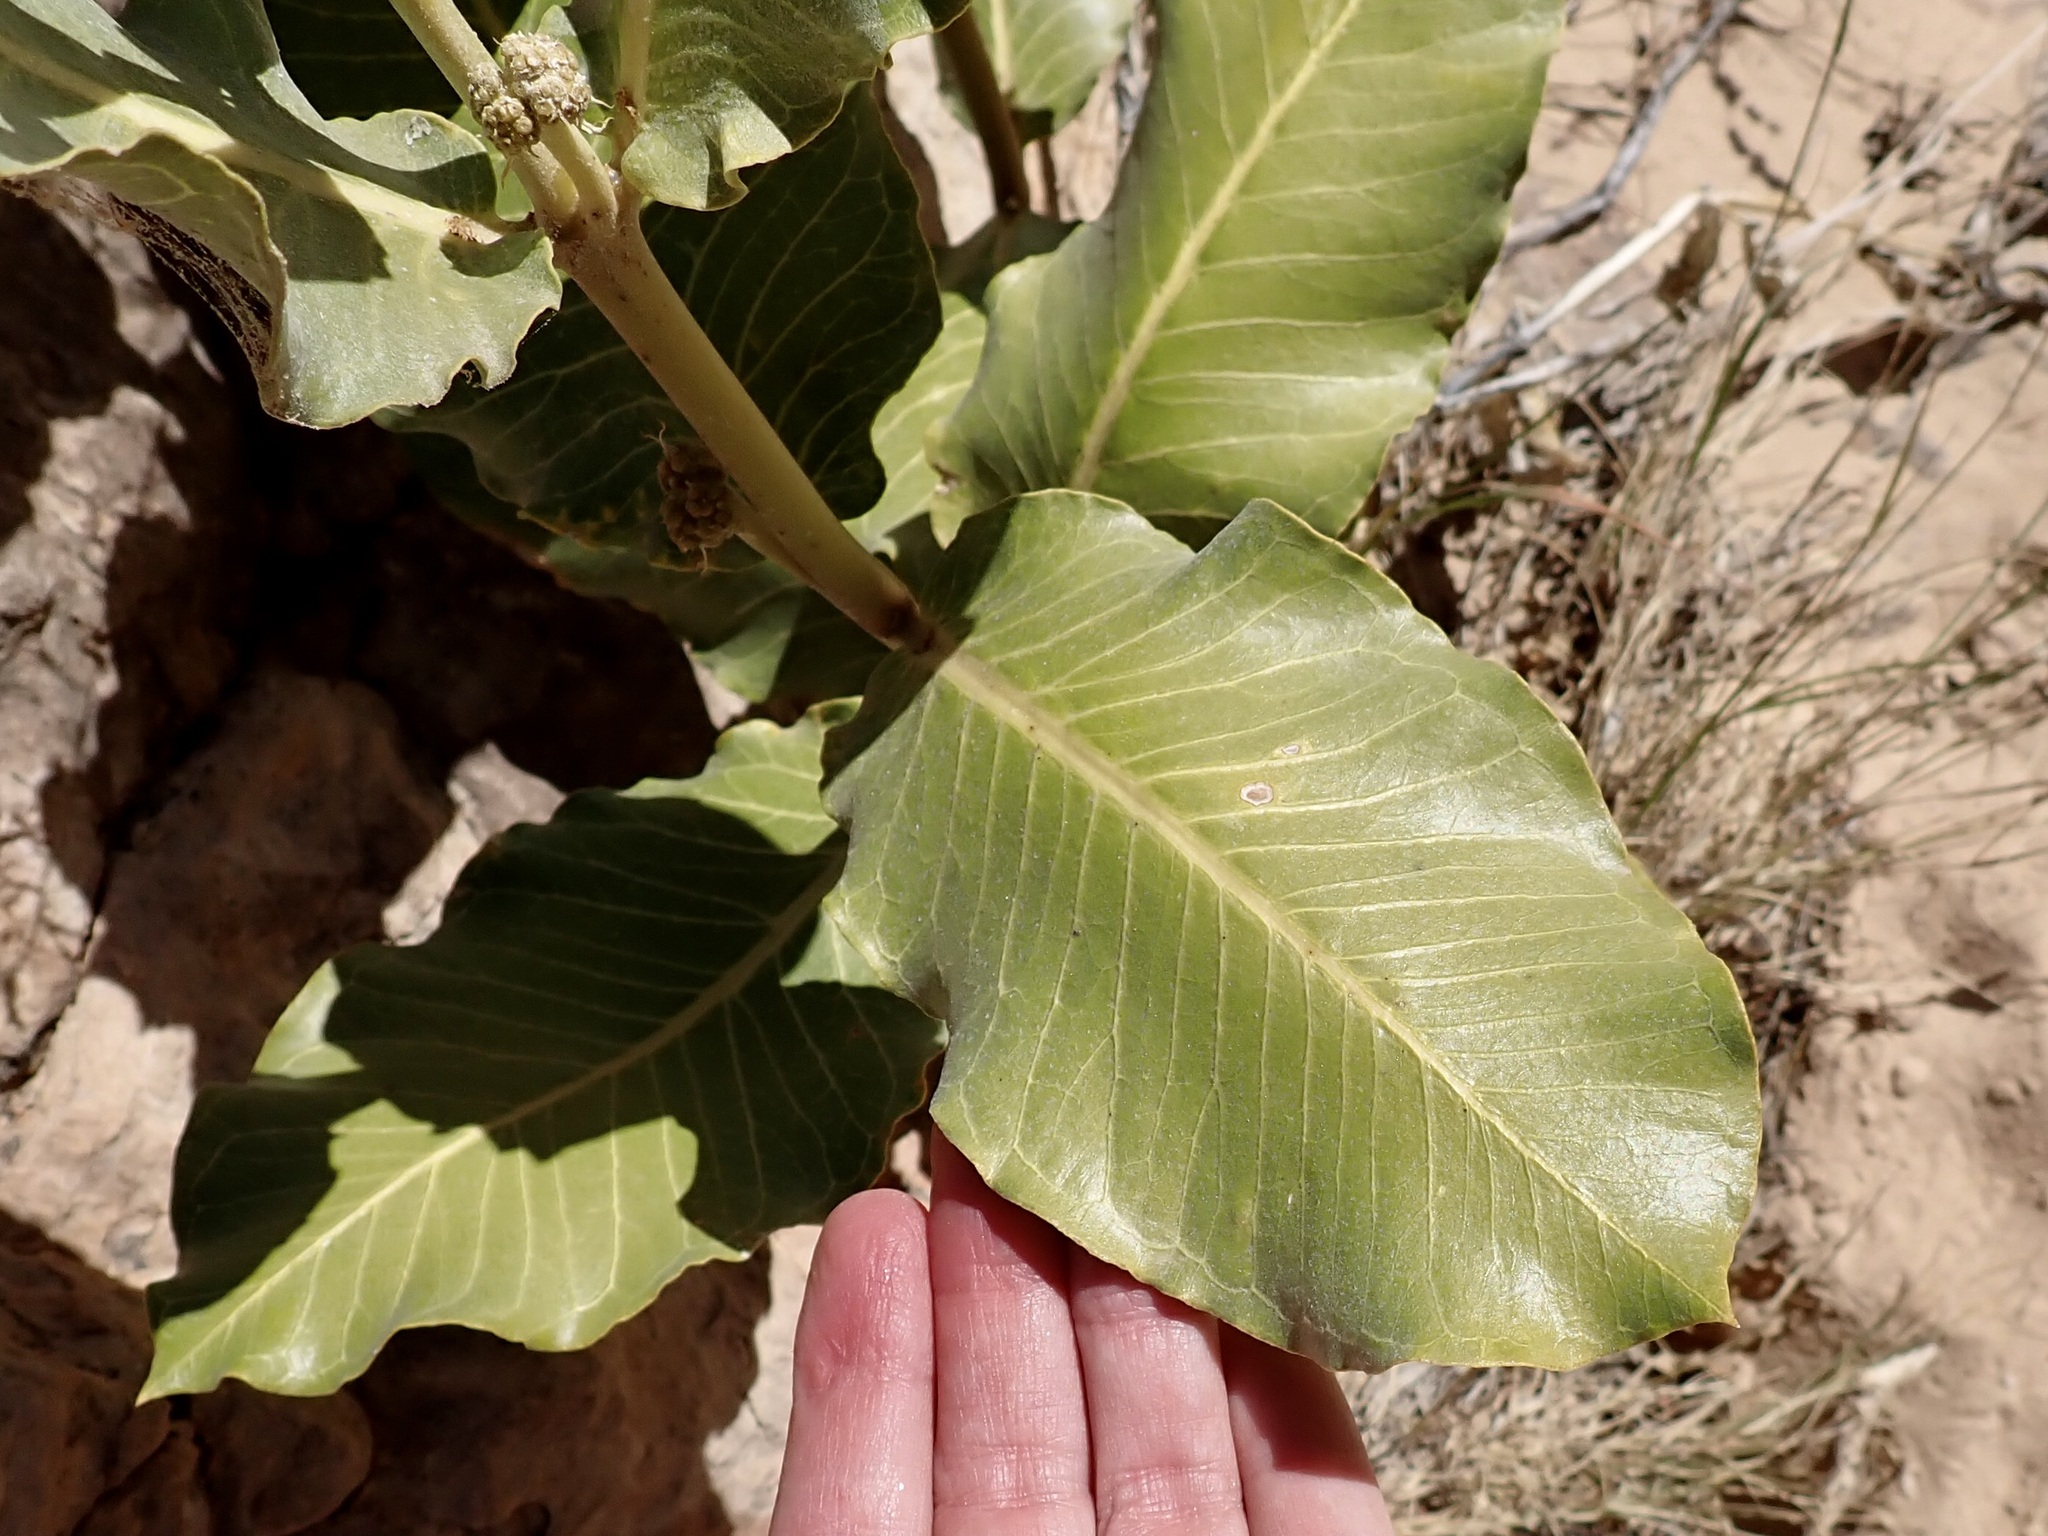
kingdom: Plantae
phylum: Tracheophyta
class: Magnoliopsida
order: Gentianales
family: Apocynaceae
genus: Asclepias
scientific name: Asclepias latifolia
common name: Broadleaf milkweed
